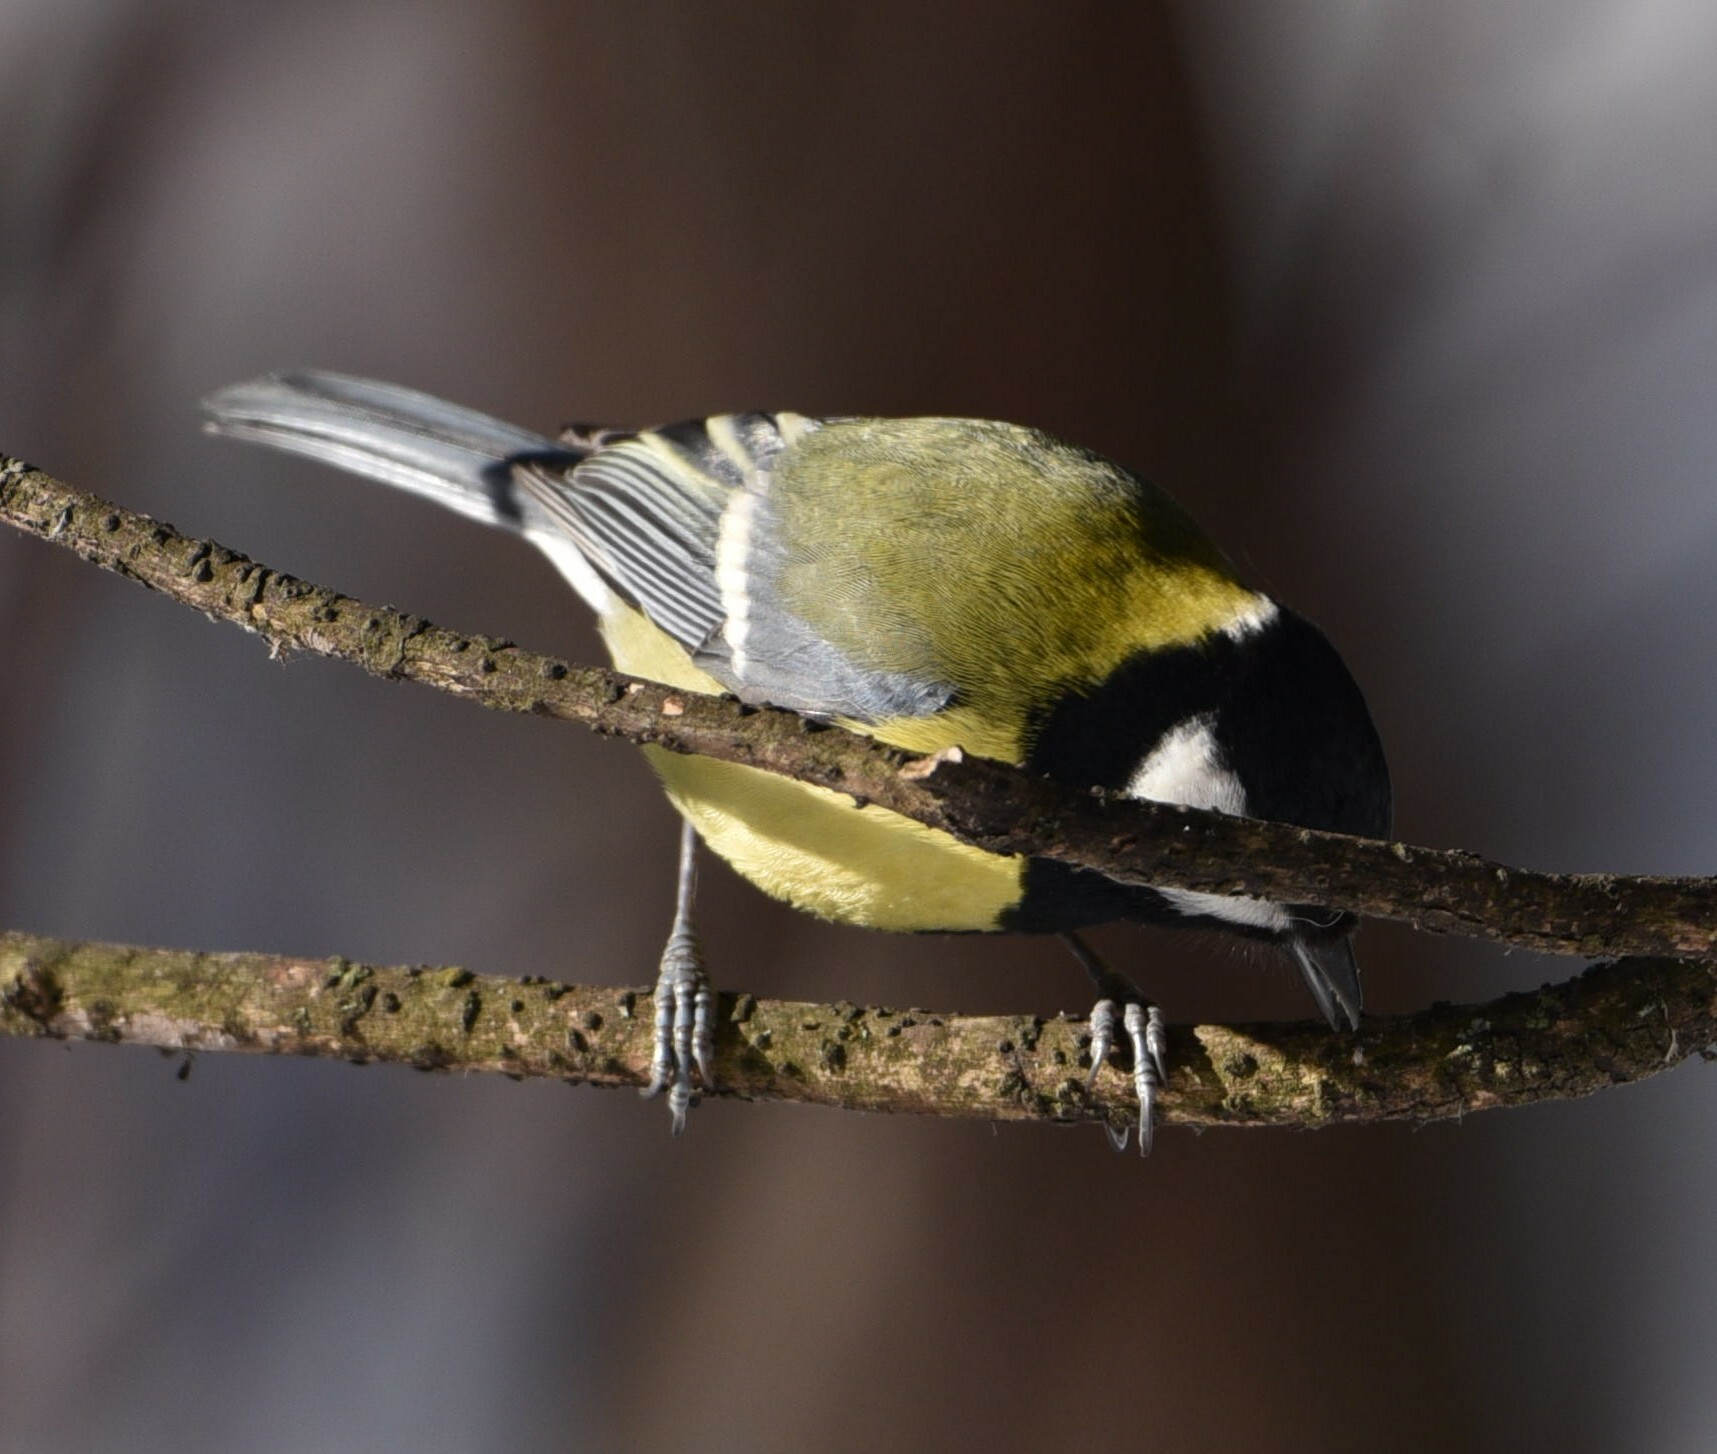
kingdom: Animalia
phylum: Chordata
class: Aves
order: Passeriformes
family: Paridae
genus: Parus
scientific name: Parus major
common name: Great tit
